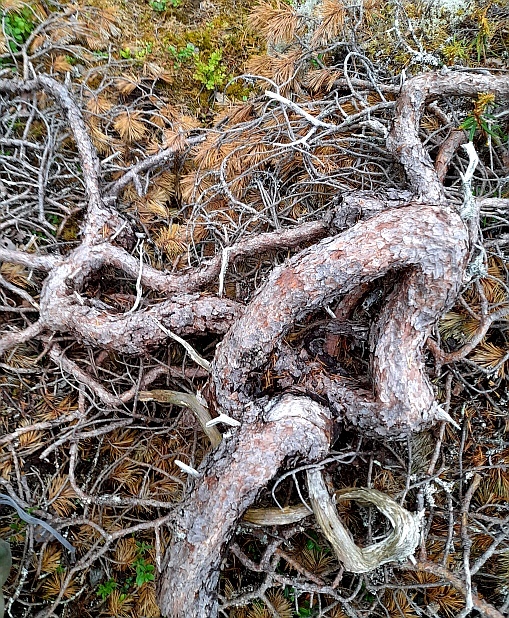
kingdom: Plantae
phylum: Tracheophyta
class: Pinopsida
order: Pinales
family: Pinaceae
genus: Pinus
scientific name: Pinus sylvestris
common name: Scots pine
